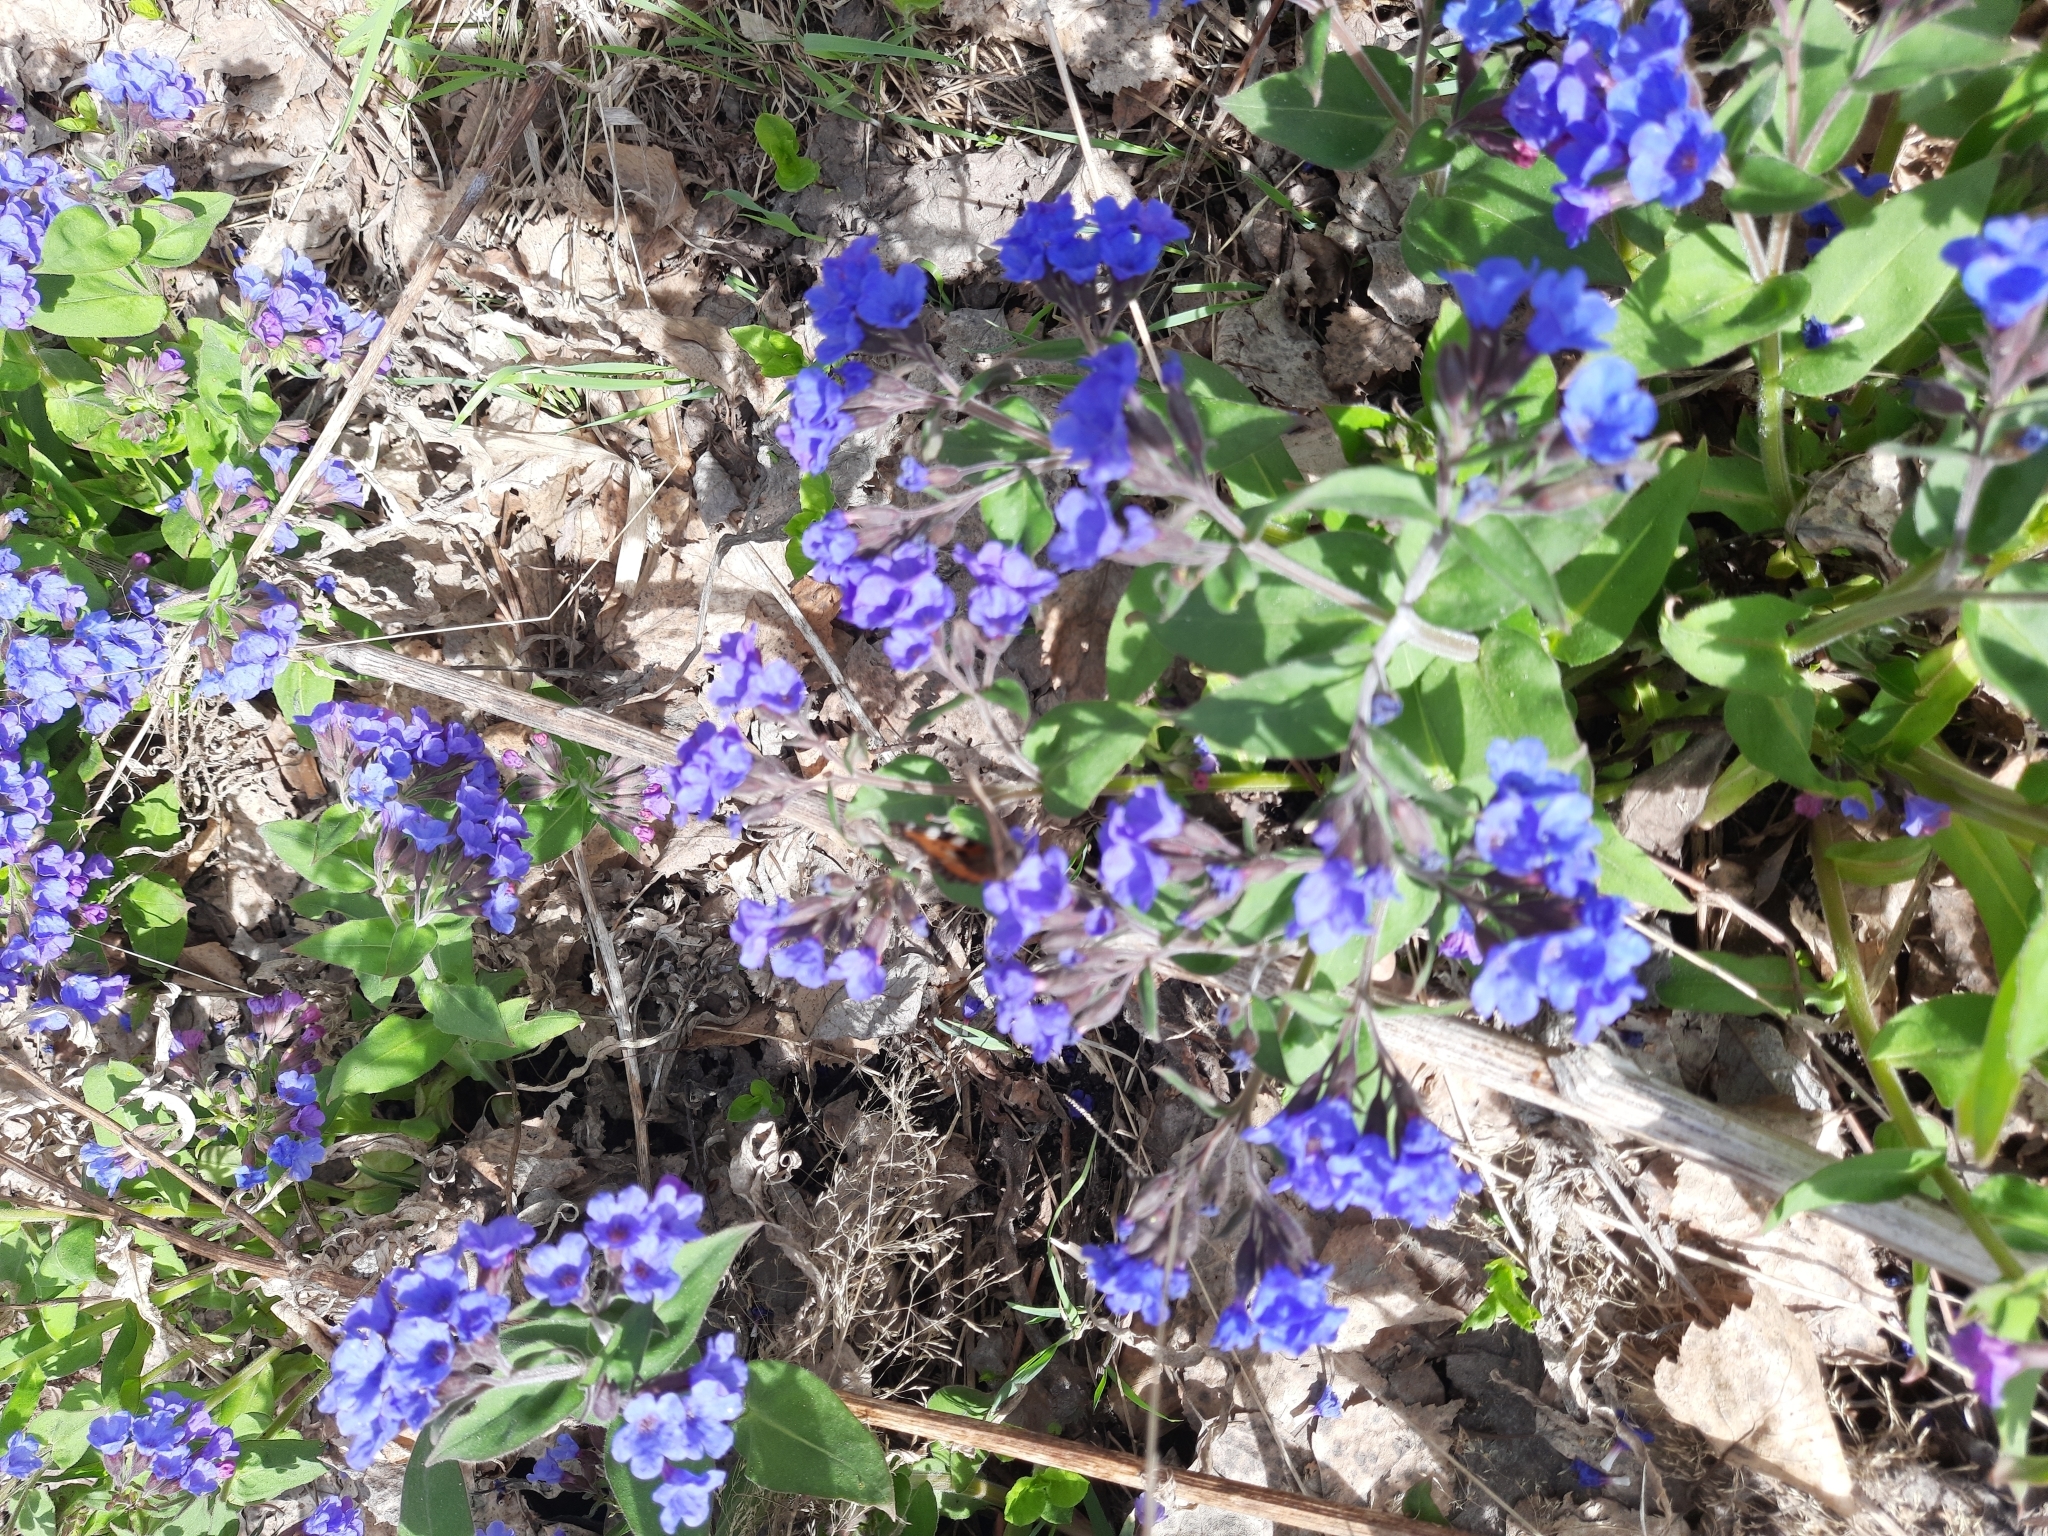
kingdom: Plantae
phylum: Tracheophyta
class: Magnoliopsida
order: Boraginales
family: Boraginaceae
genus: Pulmonaria
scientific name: Pulmonaria mollis
